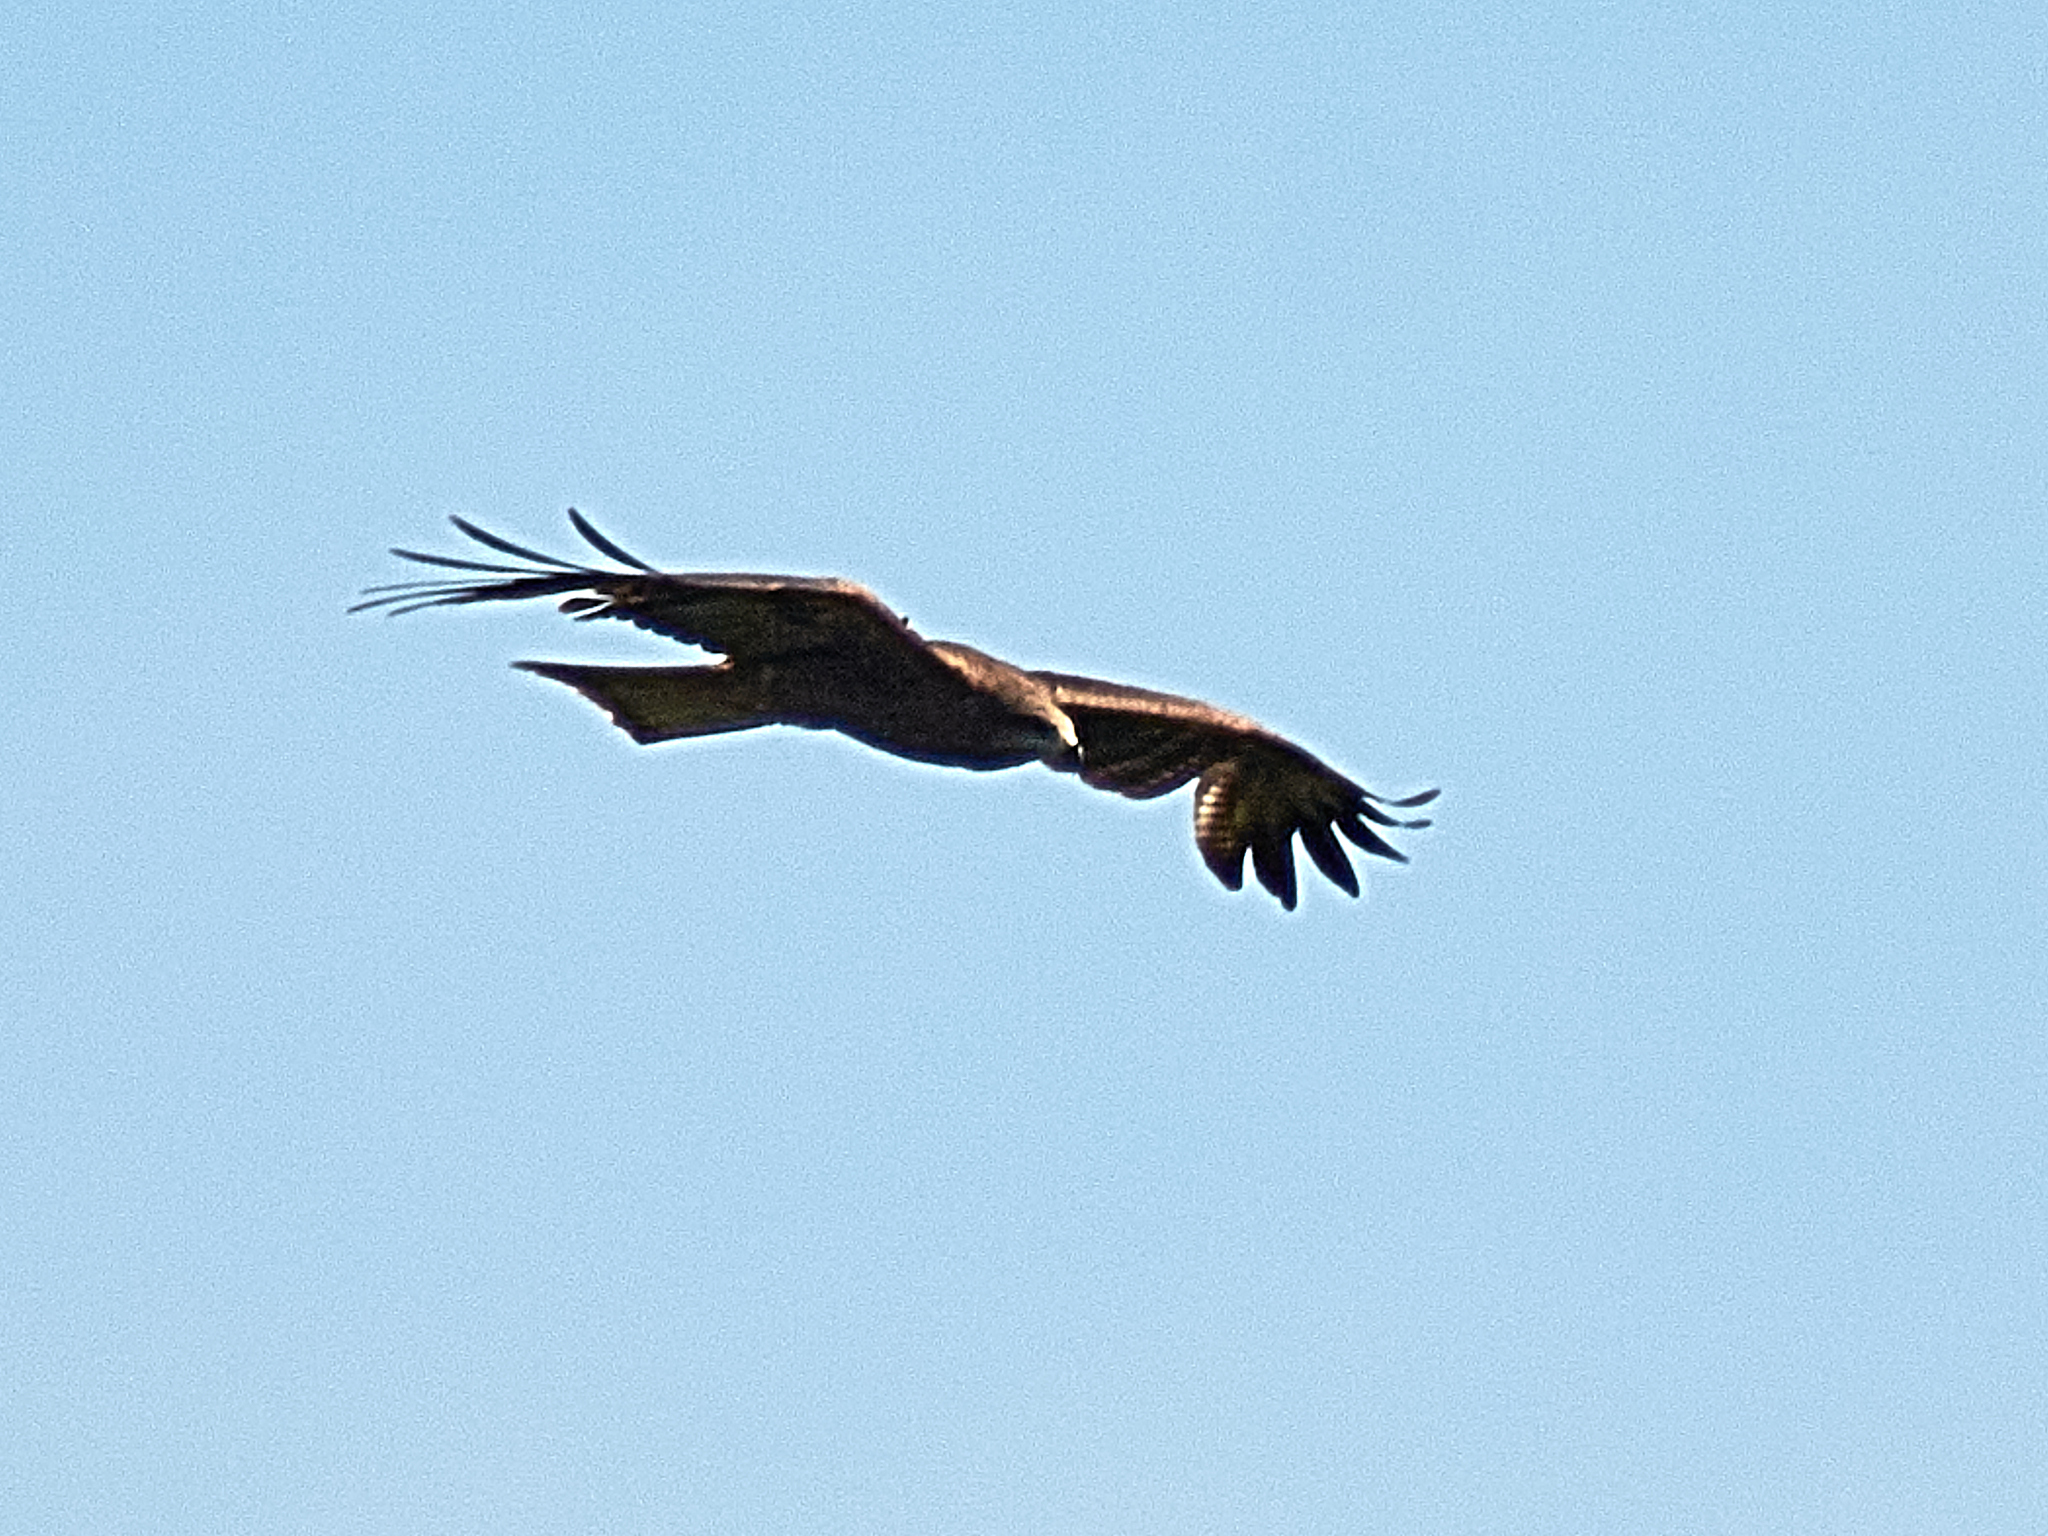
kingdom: Animalia
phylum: Chordata
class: Aves
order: Accipitriformes
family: Accipitridae
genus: Milvus
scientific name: Milvus migrans
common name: Black kite
